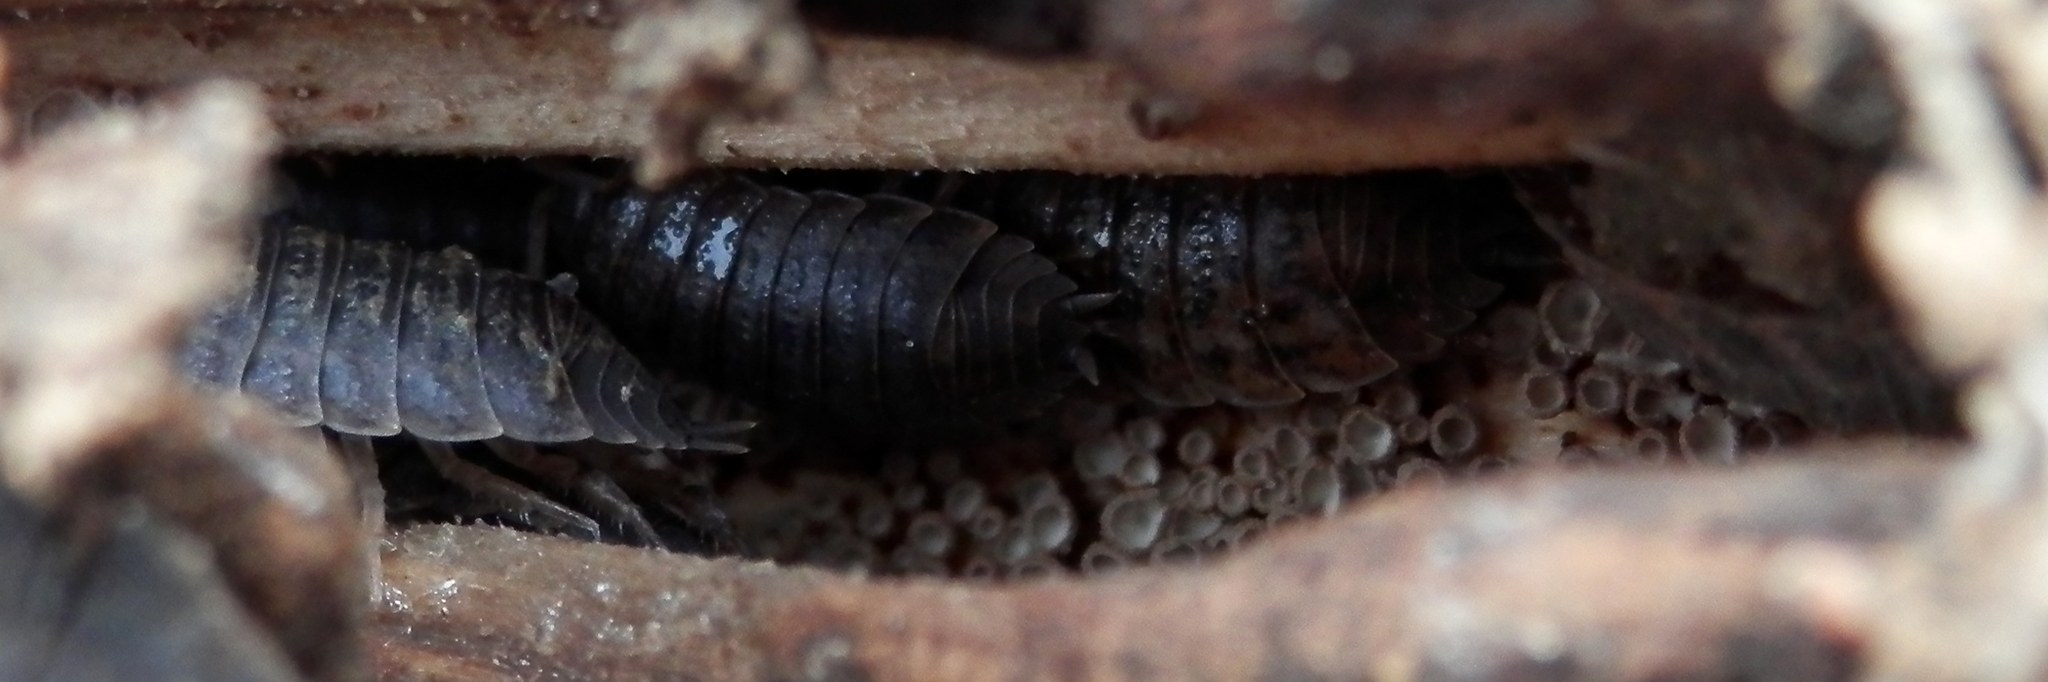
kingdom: Animalia
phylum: Arthropoda
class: Malacostraca
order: Isopoda
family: Porcellionidae
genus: Porcellio
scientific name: Porcellio scaber
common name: Common rough woodlouse
